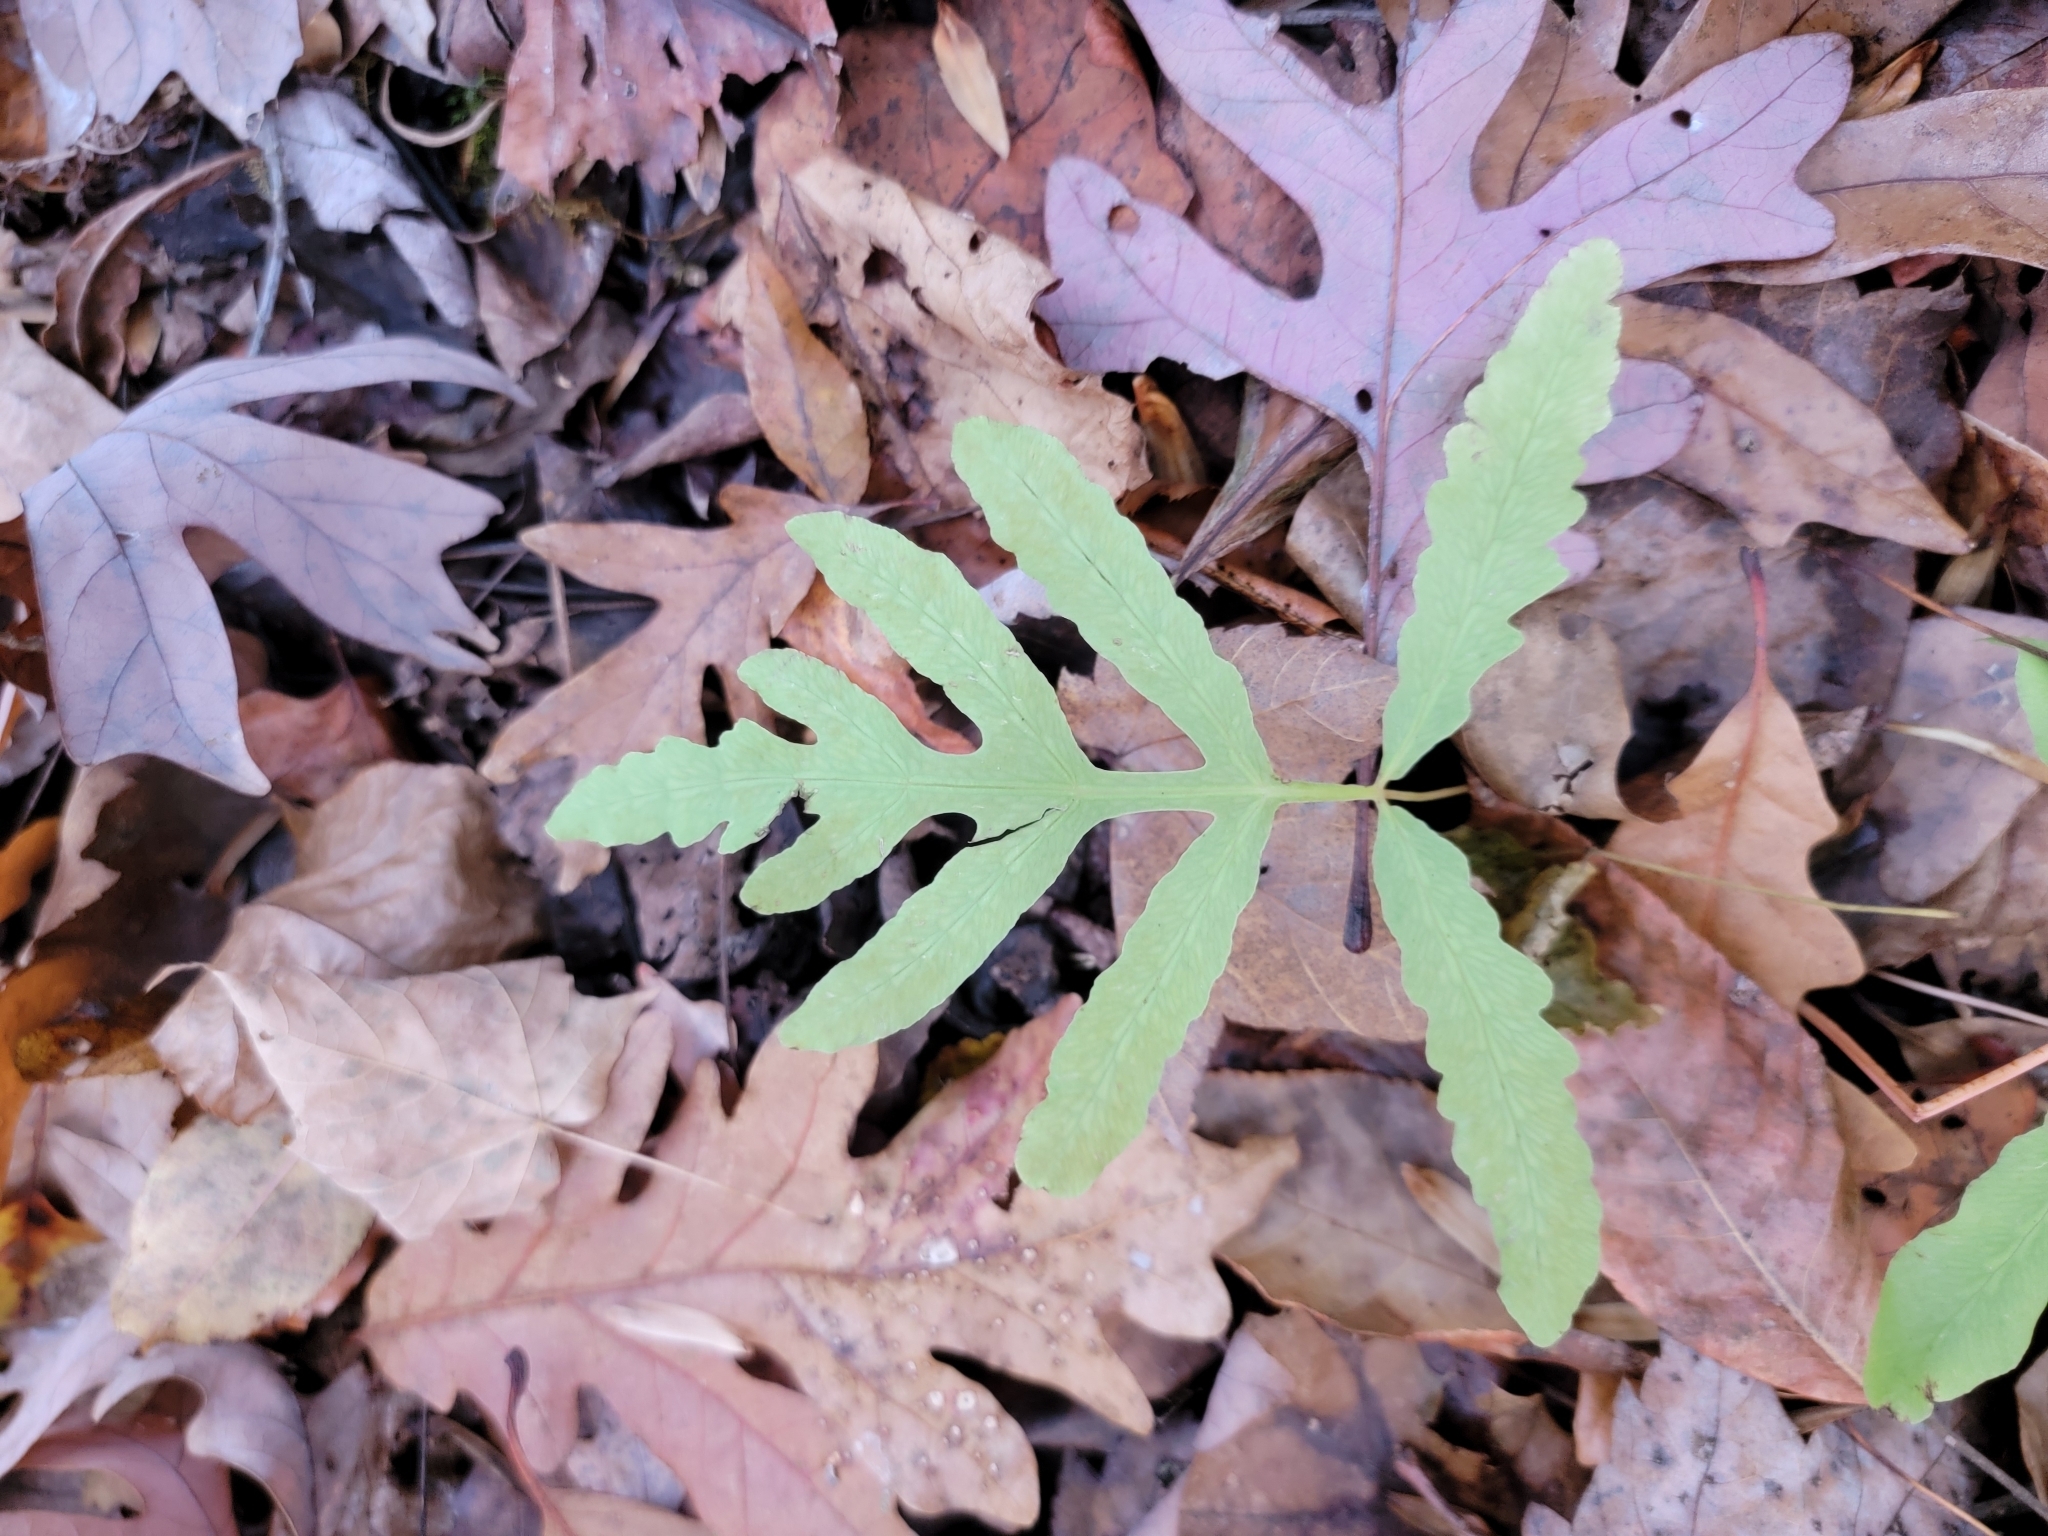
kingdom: Plantae
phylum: Tracheophyta
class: Polypodiopsida
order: Polypodiales
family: Onocleaceae
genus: Onoclea
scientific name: Onoclea sensibilis
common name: Sensitive fern
